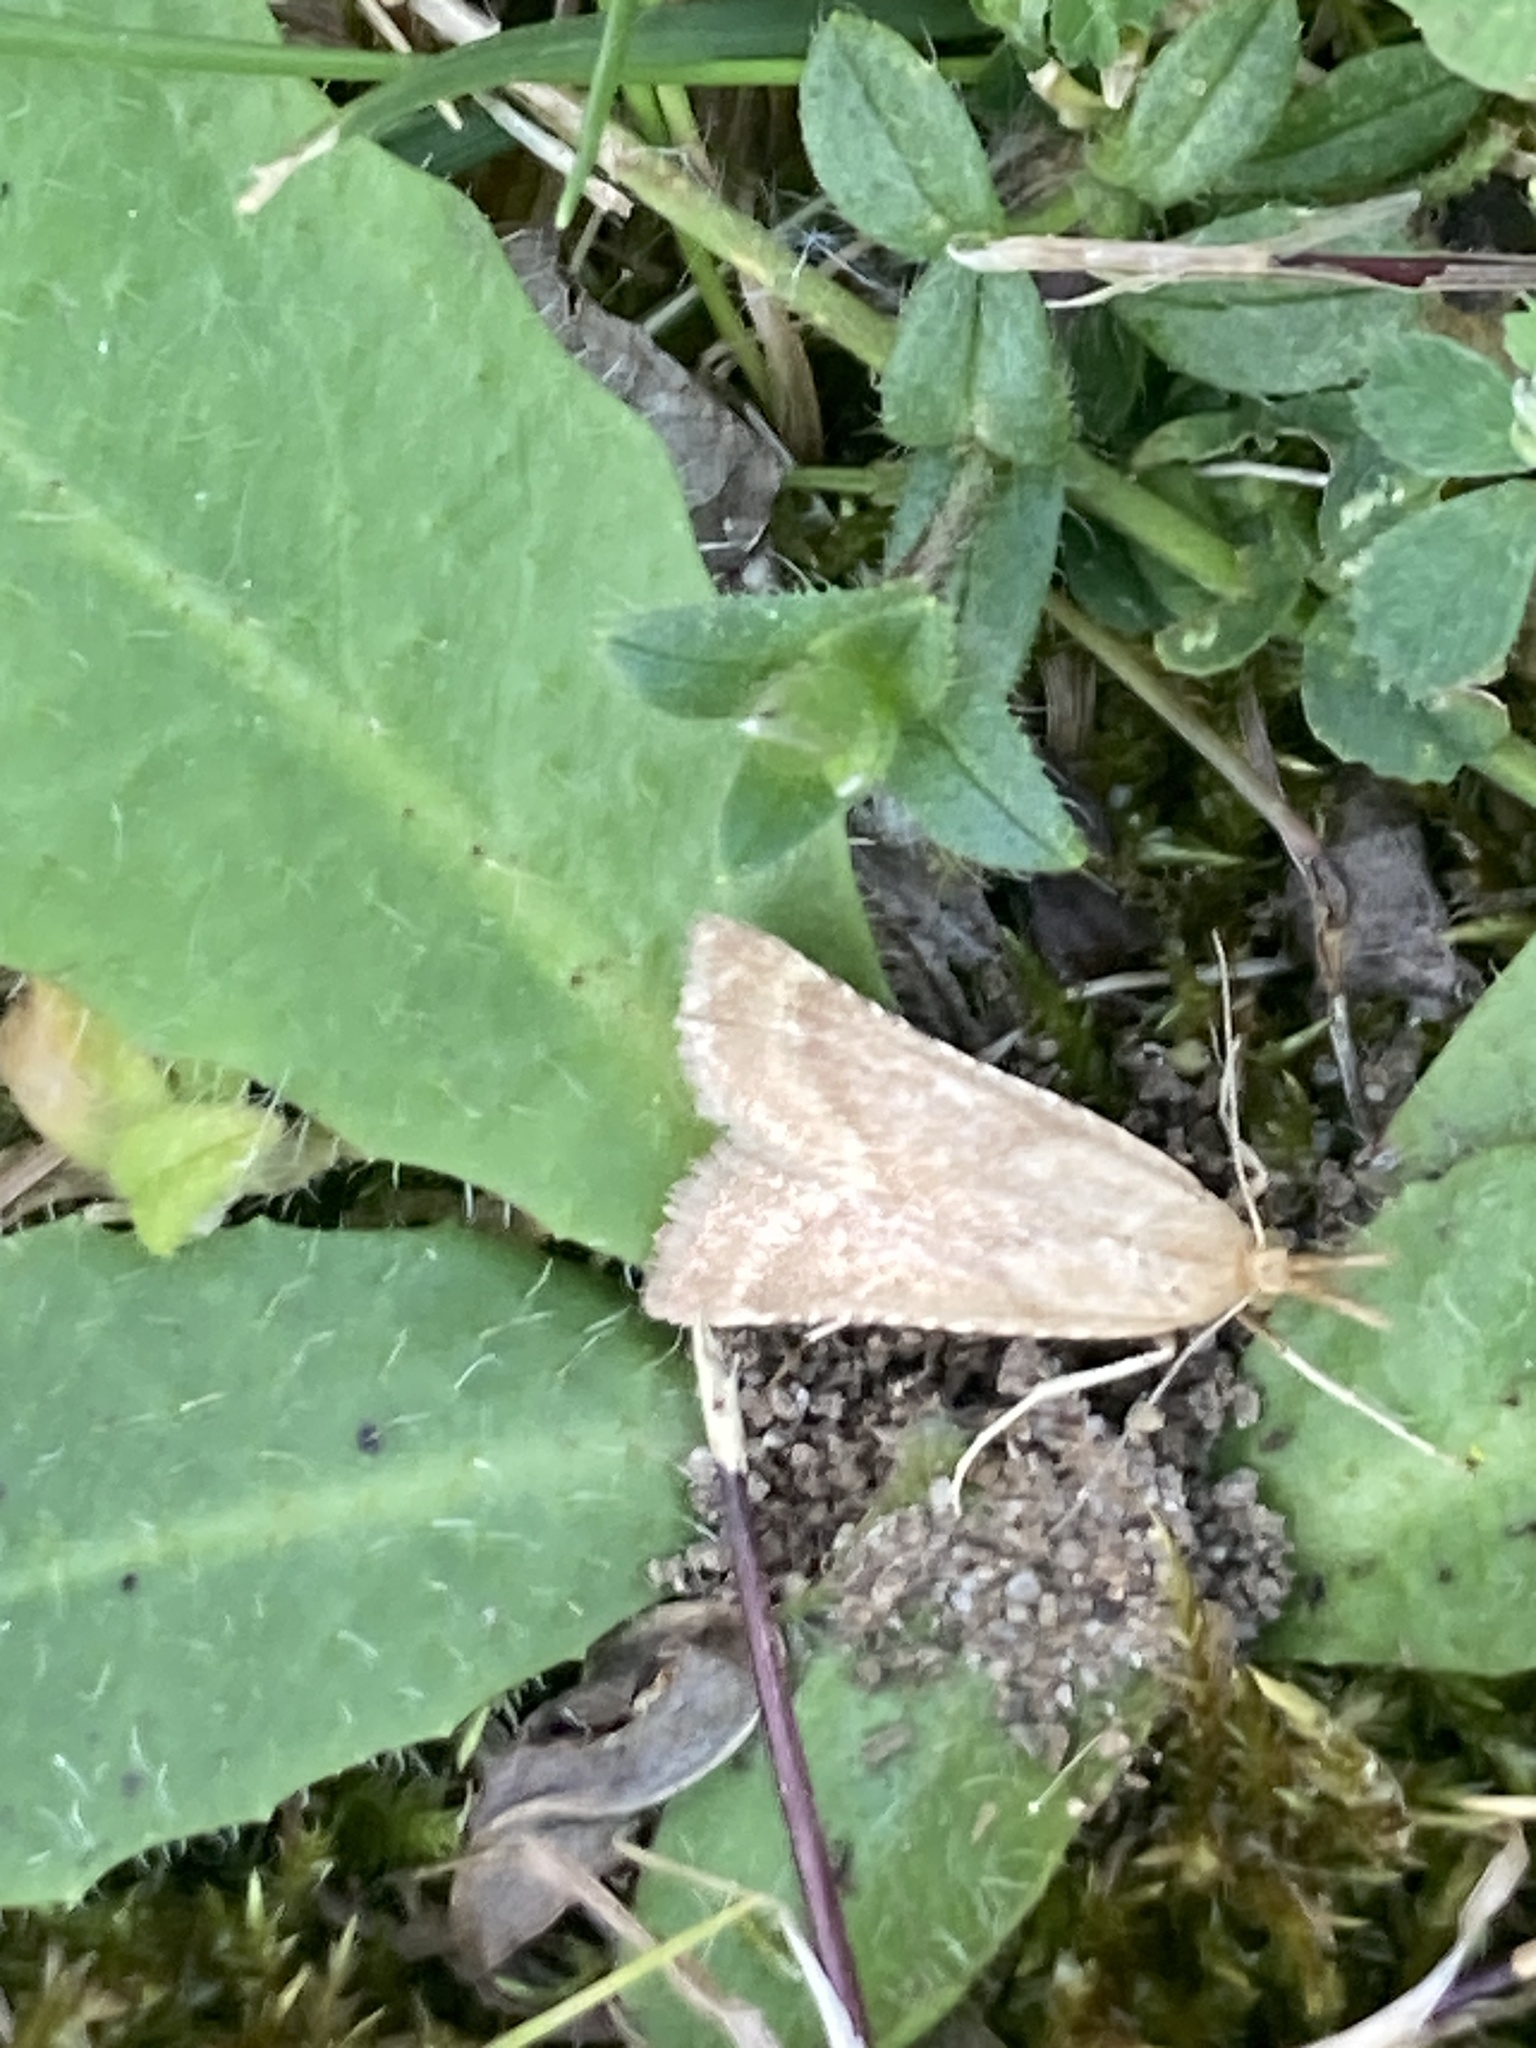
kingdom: Animalia
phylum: Arthropoda
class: Insecta
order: Lepidoptera
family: Pyralidae
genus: Synaphe
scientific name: Synaphe punctalis
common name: Long-legged tabby
